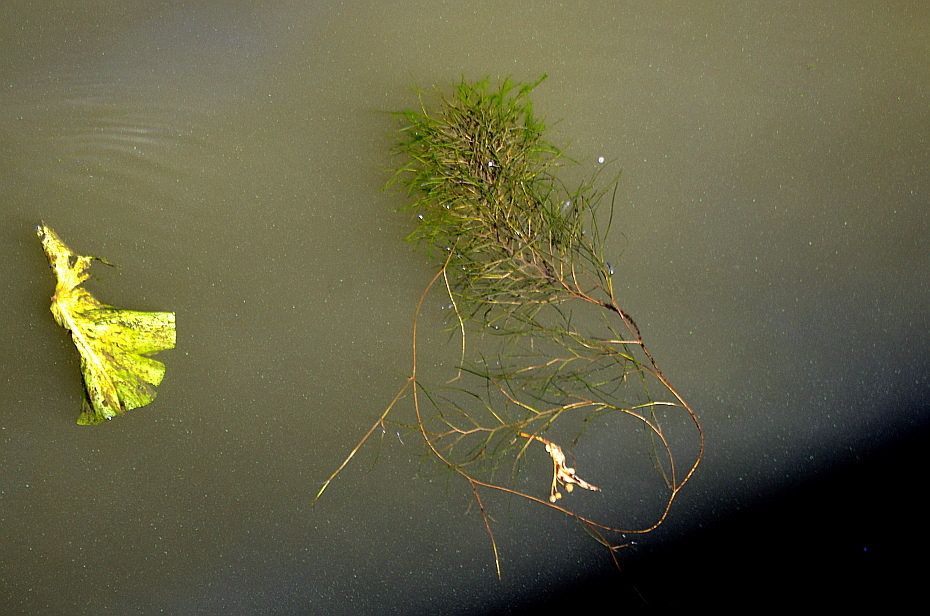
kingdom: Plantae
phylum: Tracheophyta
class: Liliopsida
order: Alismatales
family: Potamogetonaceae
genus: Stuckenia
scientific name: Stuckenia pectinata
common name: Sago pondweed
